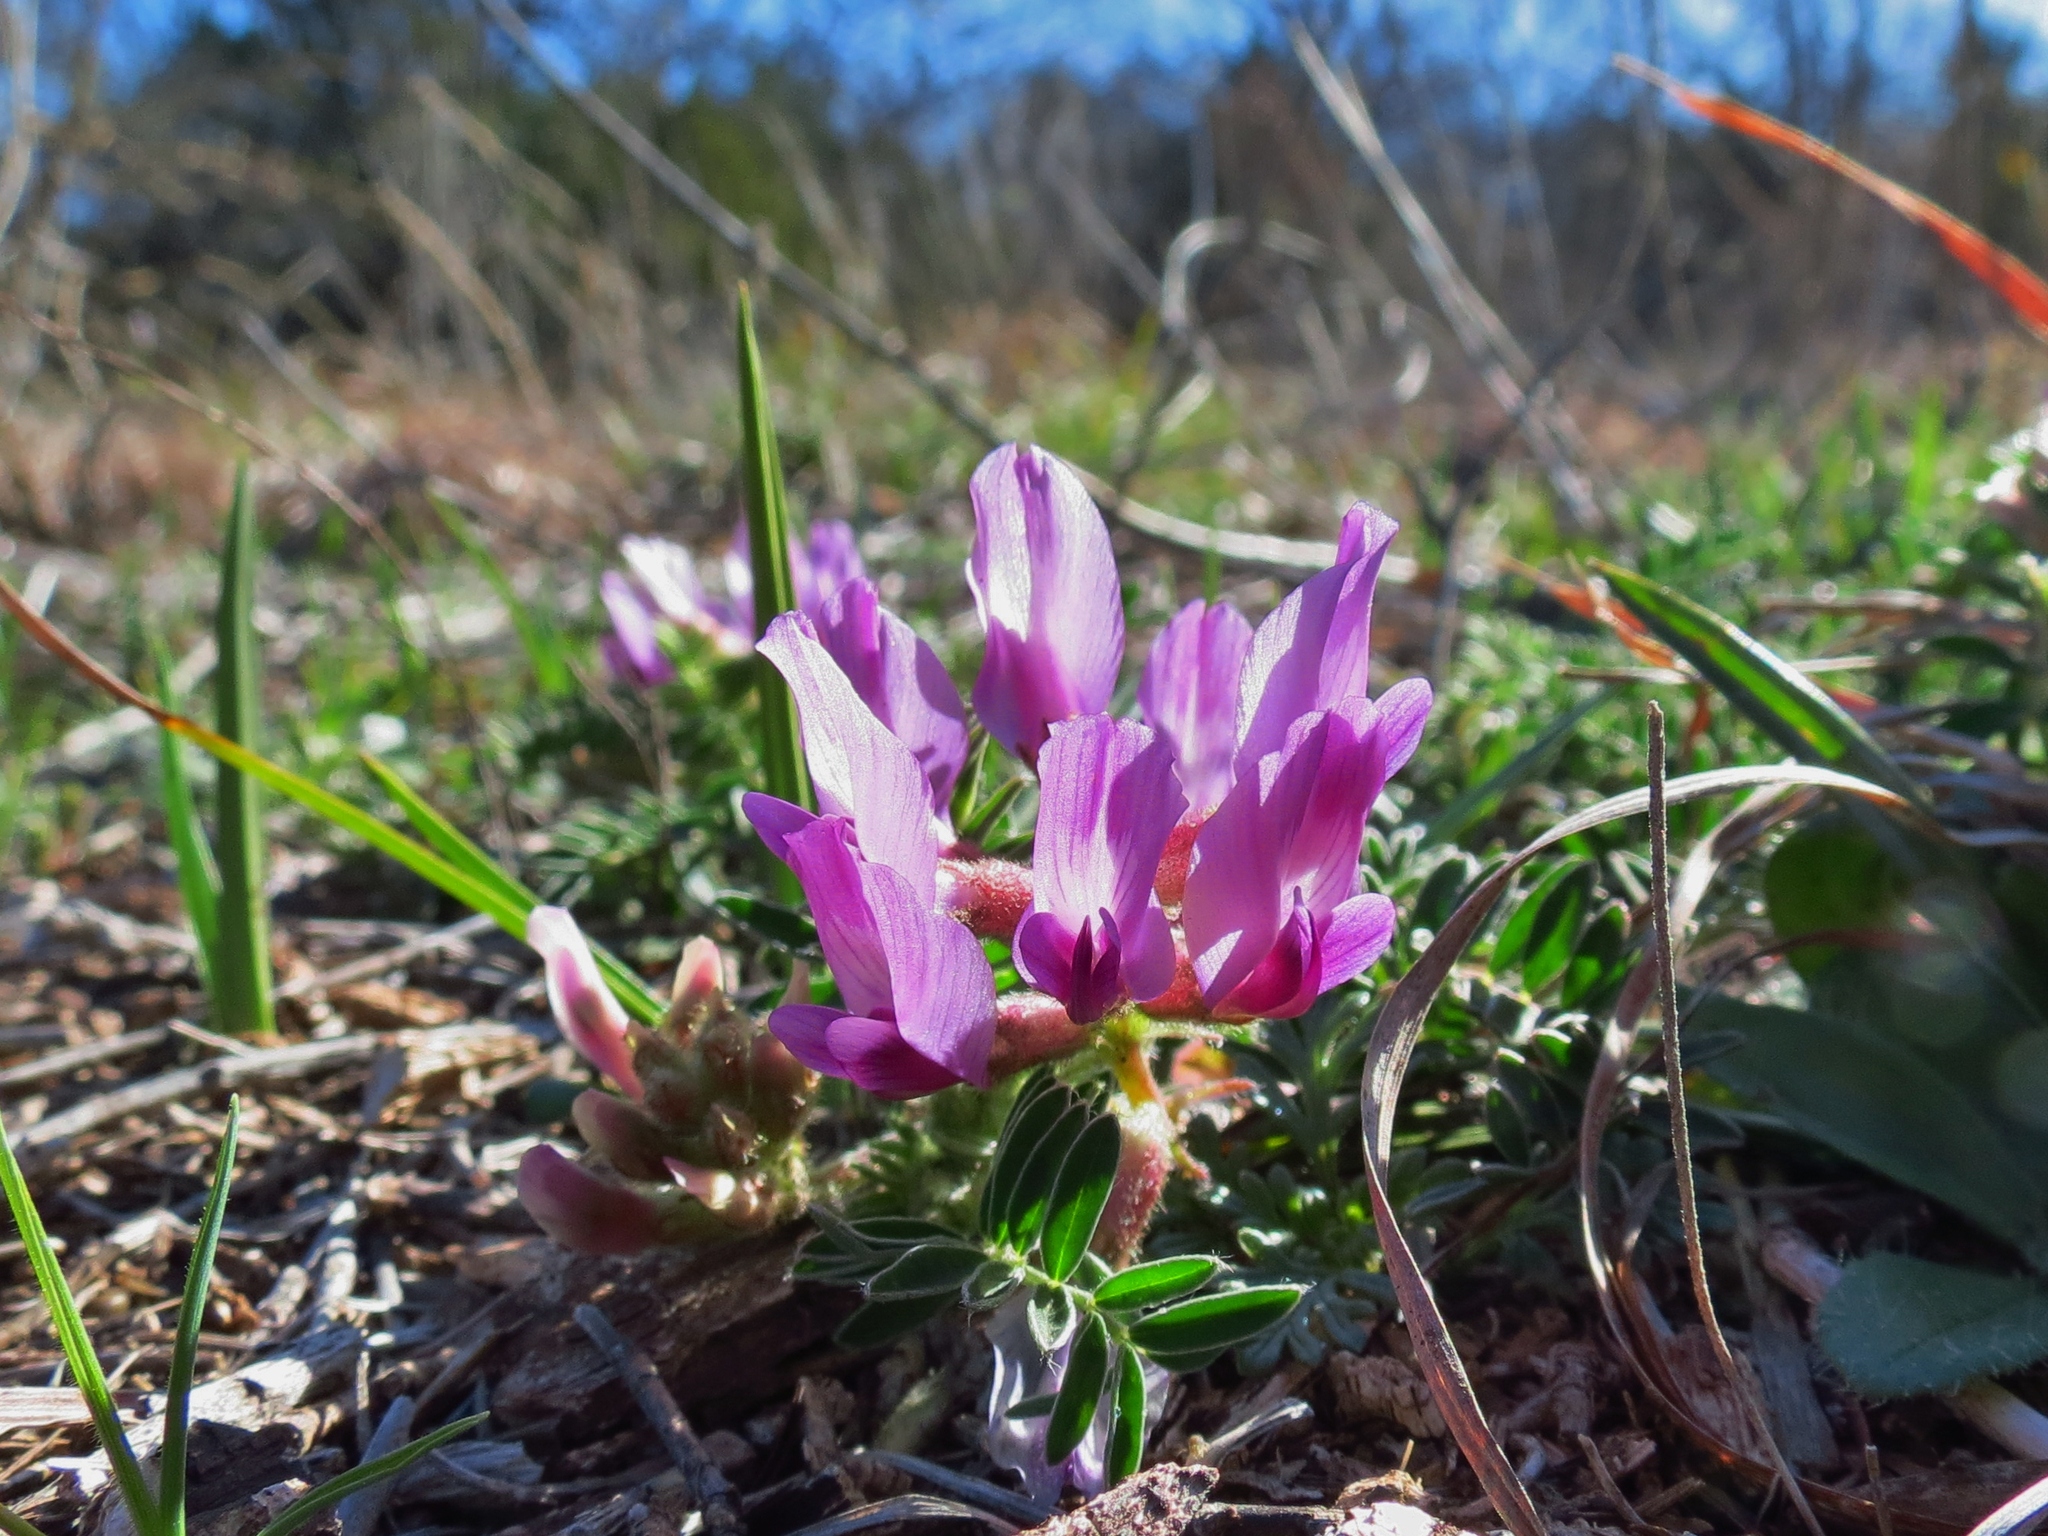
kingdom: Plantae
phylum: Tracheophyta
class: Magnoliopsida
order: Fabales
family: Fabaceae
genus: Astragalus
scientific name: Astragalus crassicarpus
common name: Ground-plum milk-vetch
